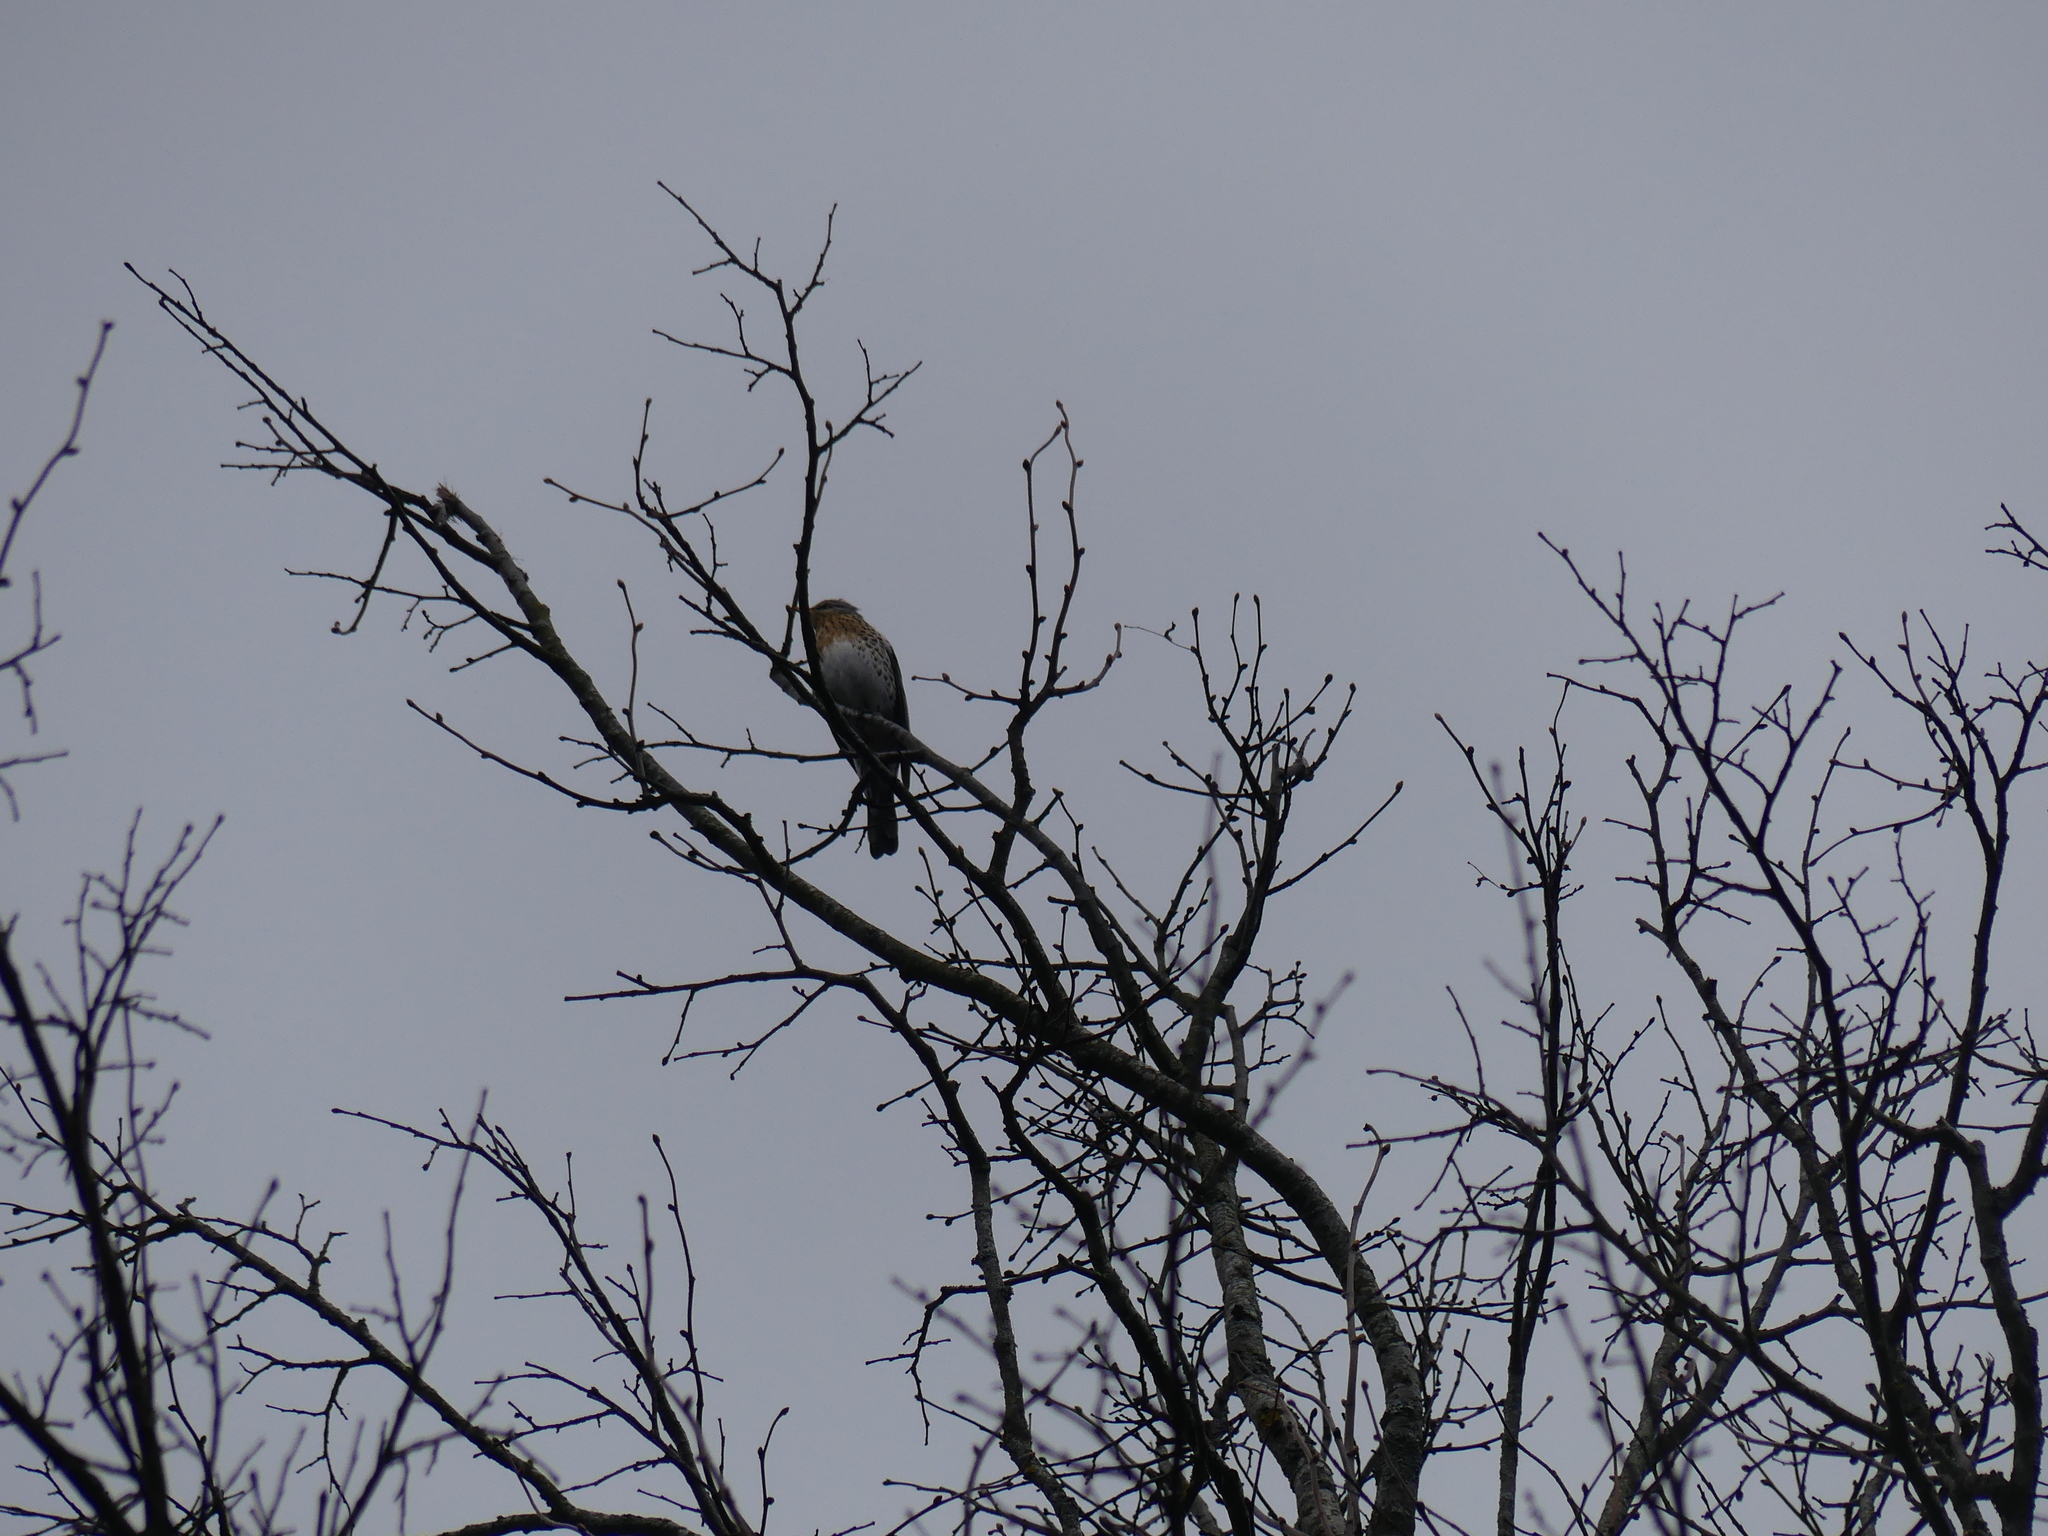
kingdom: Animalia
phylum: Chordata
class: Aves
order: Passeriformes
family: Turdidae
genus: Turdus
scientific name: Turdus pilaris
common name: Fieldfare
